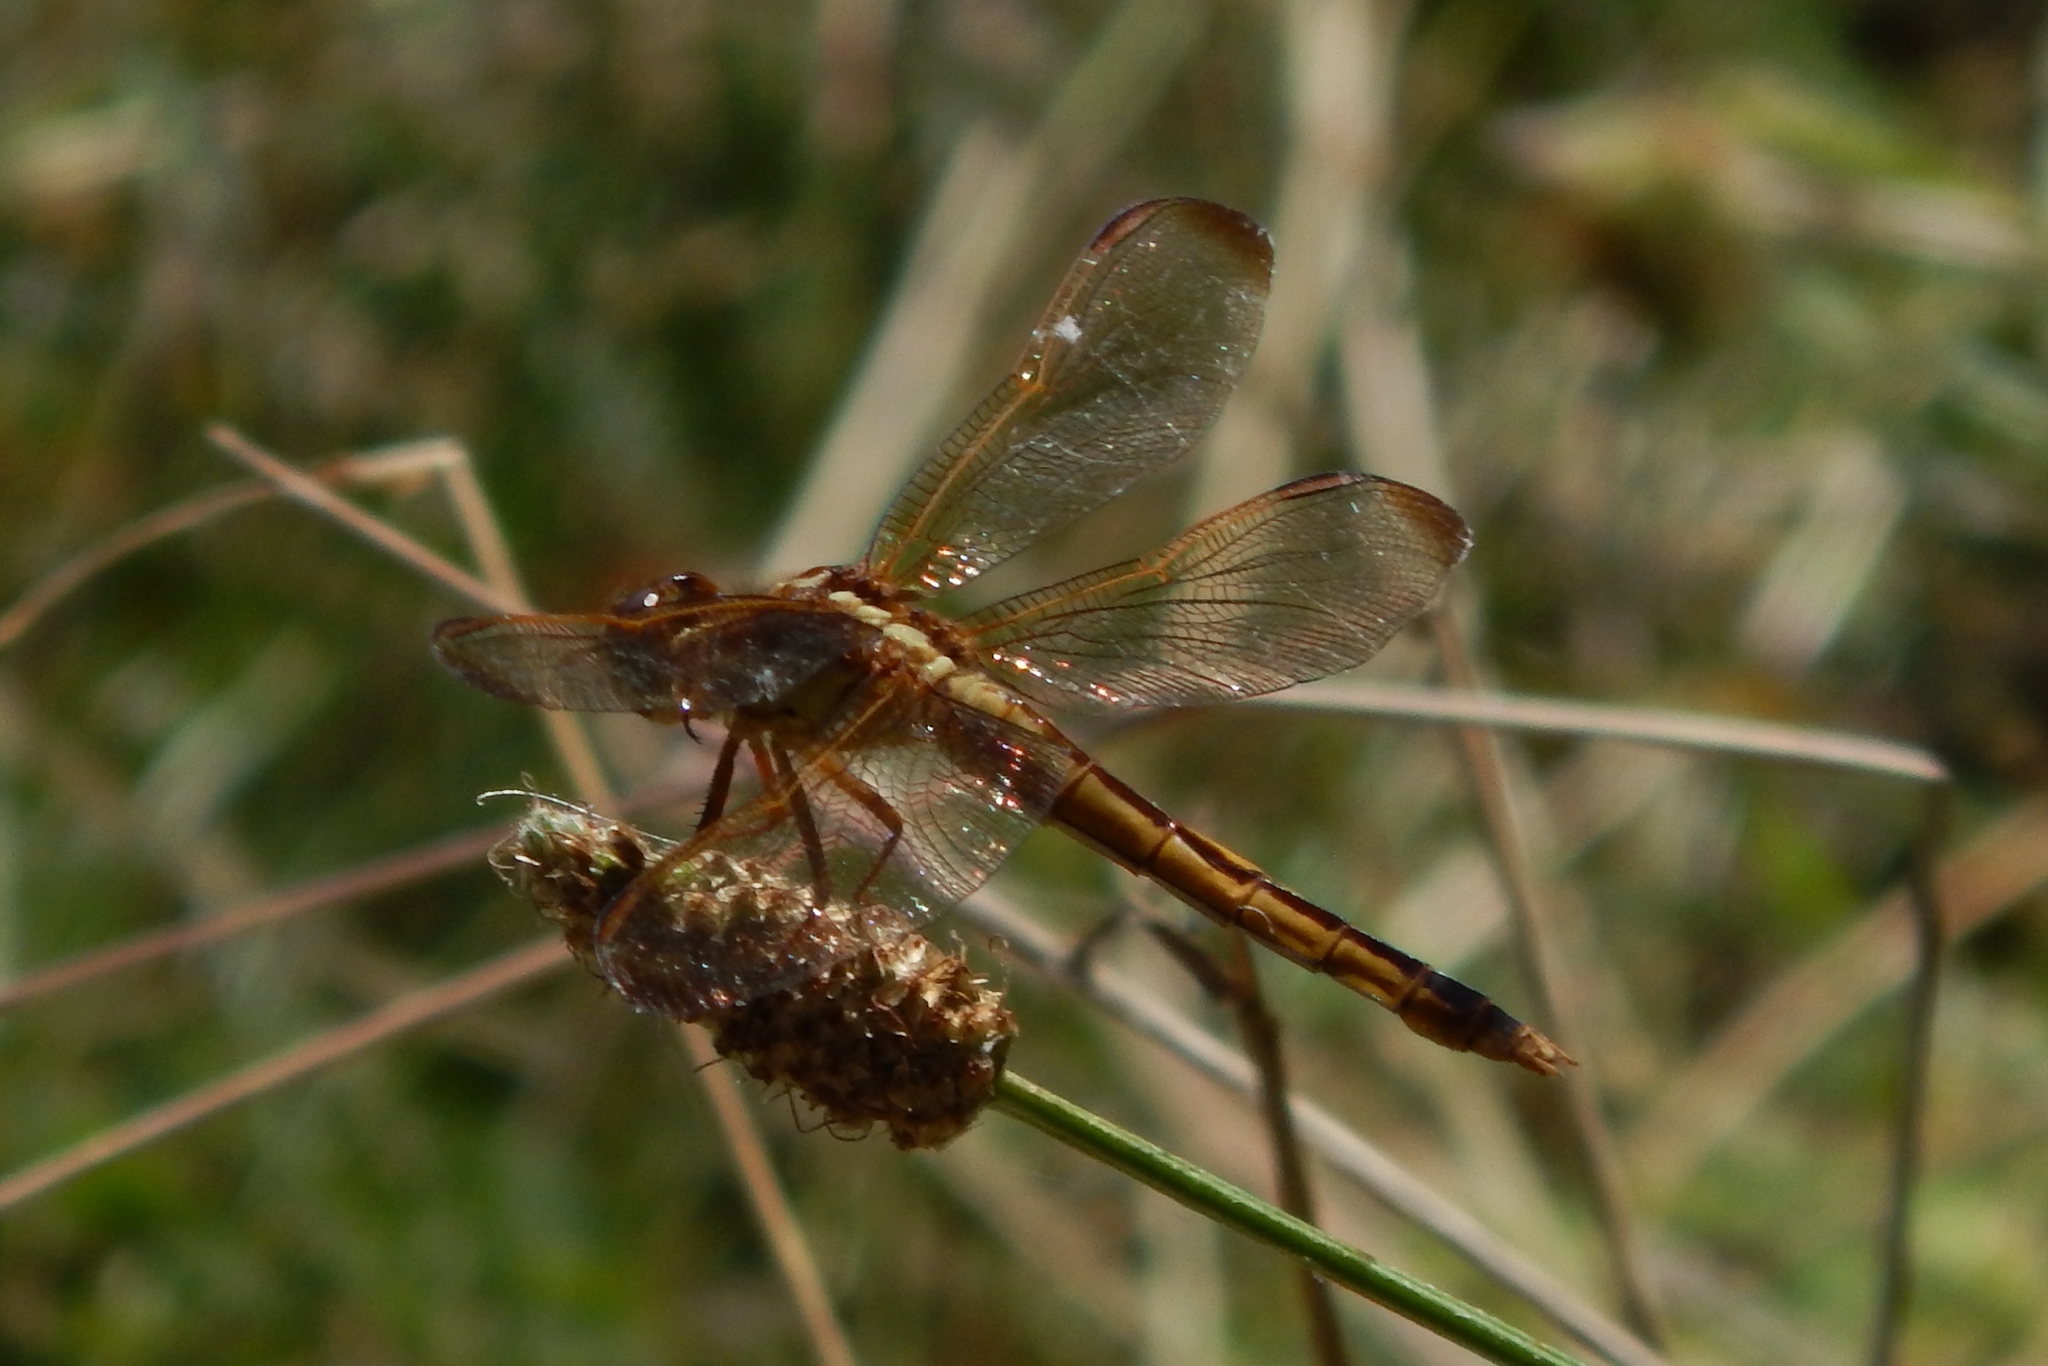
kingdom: Animalia
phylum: Arthropoda
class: Insecta
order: Odonata
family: Libellulidae
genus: Libellula
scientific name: Libellula needhami
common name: Needham's skimmer
